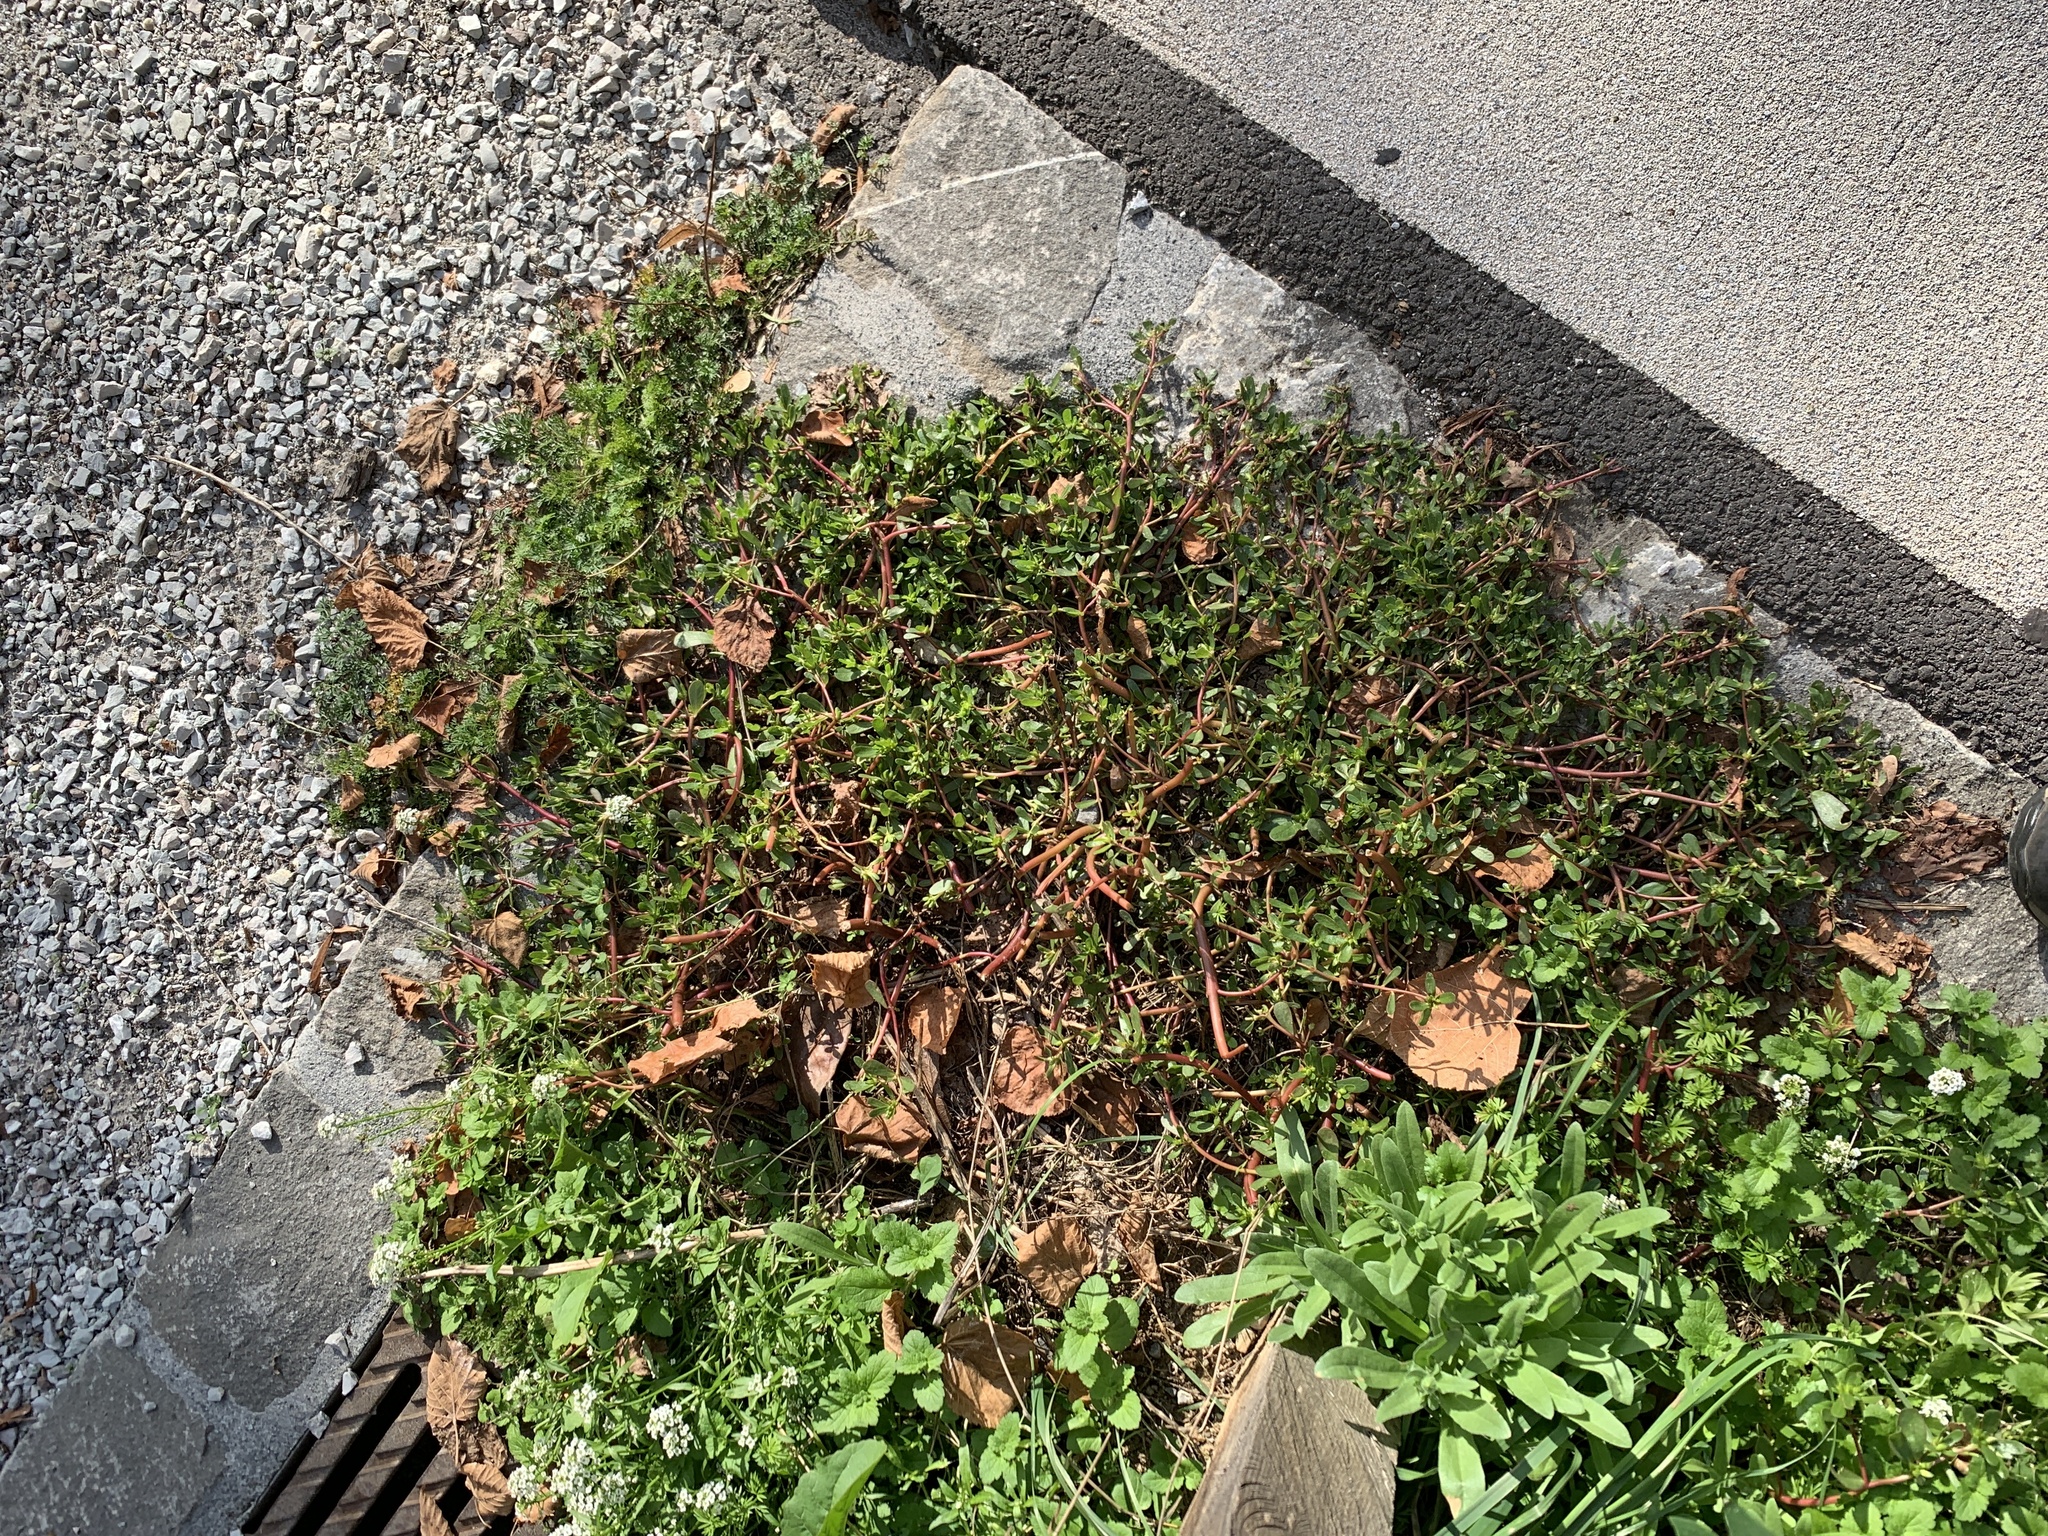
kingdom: Plantae
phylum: Tracheophyta
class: Magnoliopsida
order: Caryophyllales
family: Portulacaceae
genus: Portulaca
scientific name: Portulaca oleracea
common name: Common purslane
